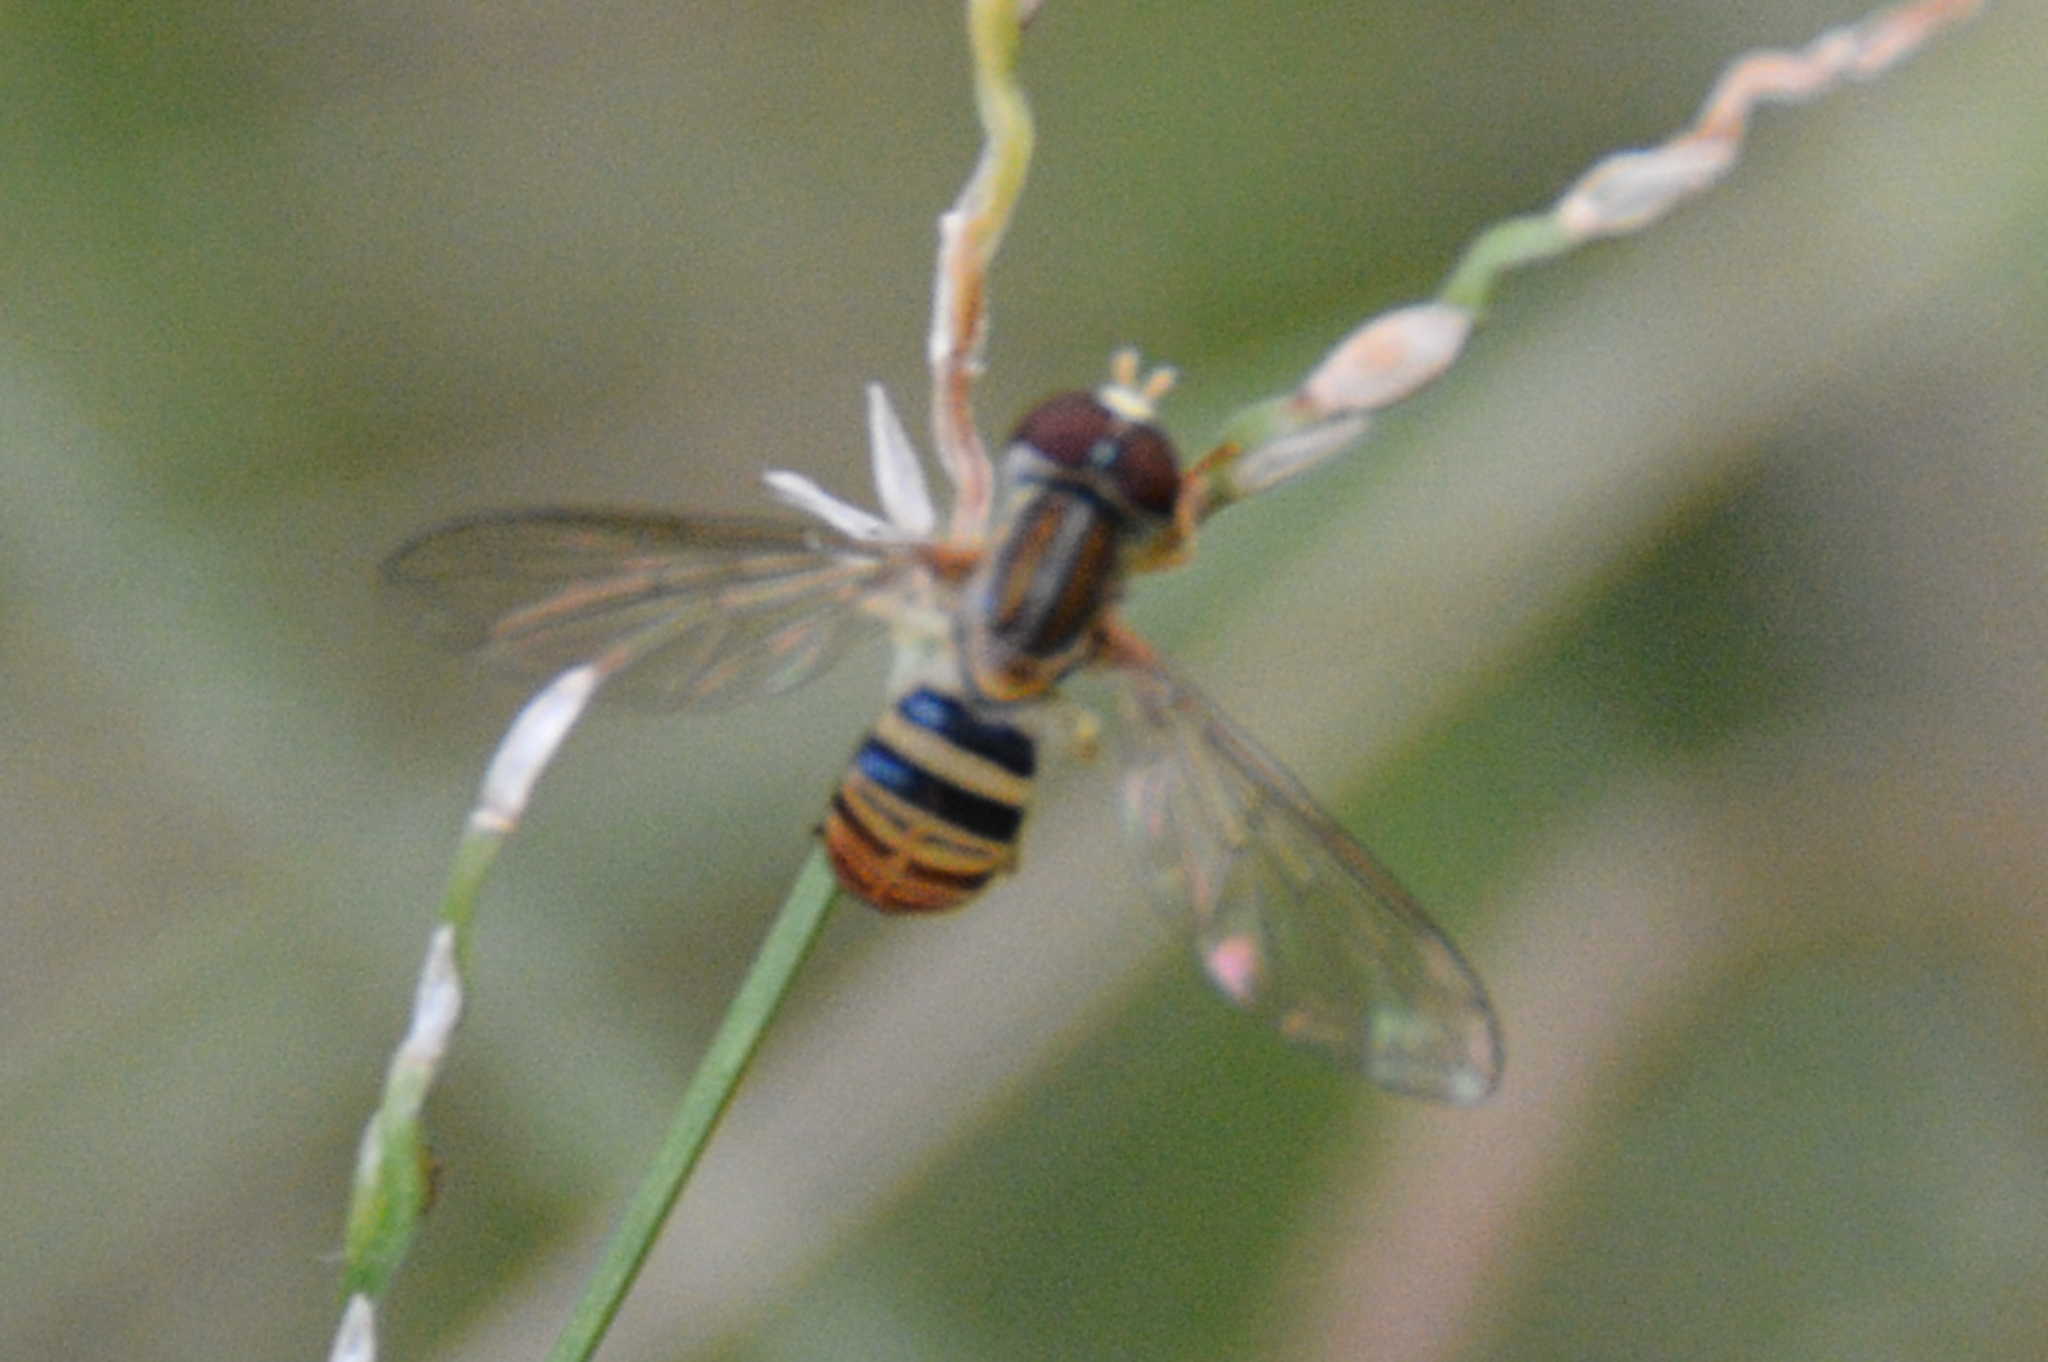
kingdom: Animalia
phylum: Arthropoda
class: Insecta
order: Diptera
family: Syrphidae
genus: Toxomerus
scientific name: Toxomerus politus
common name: Maize calligrapher
